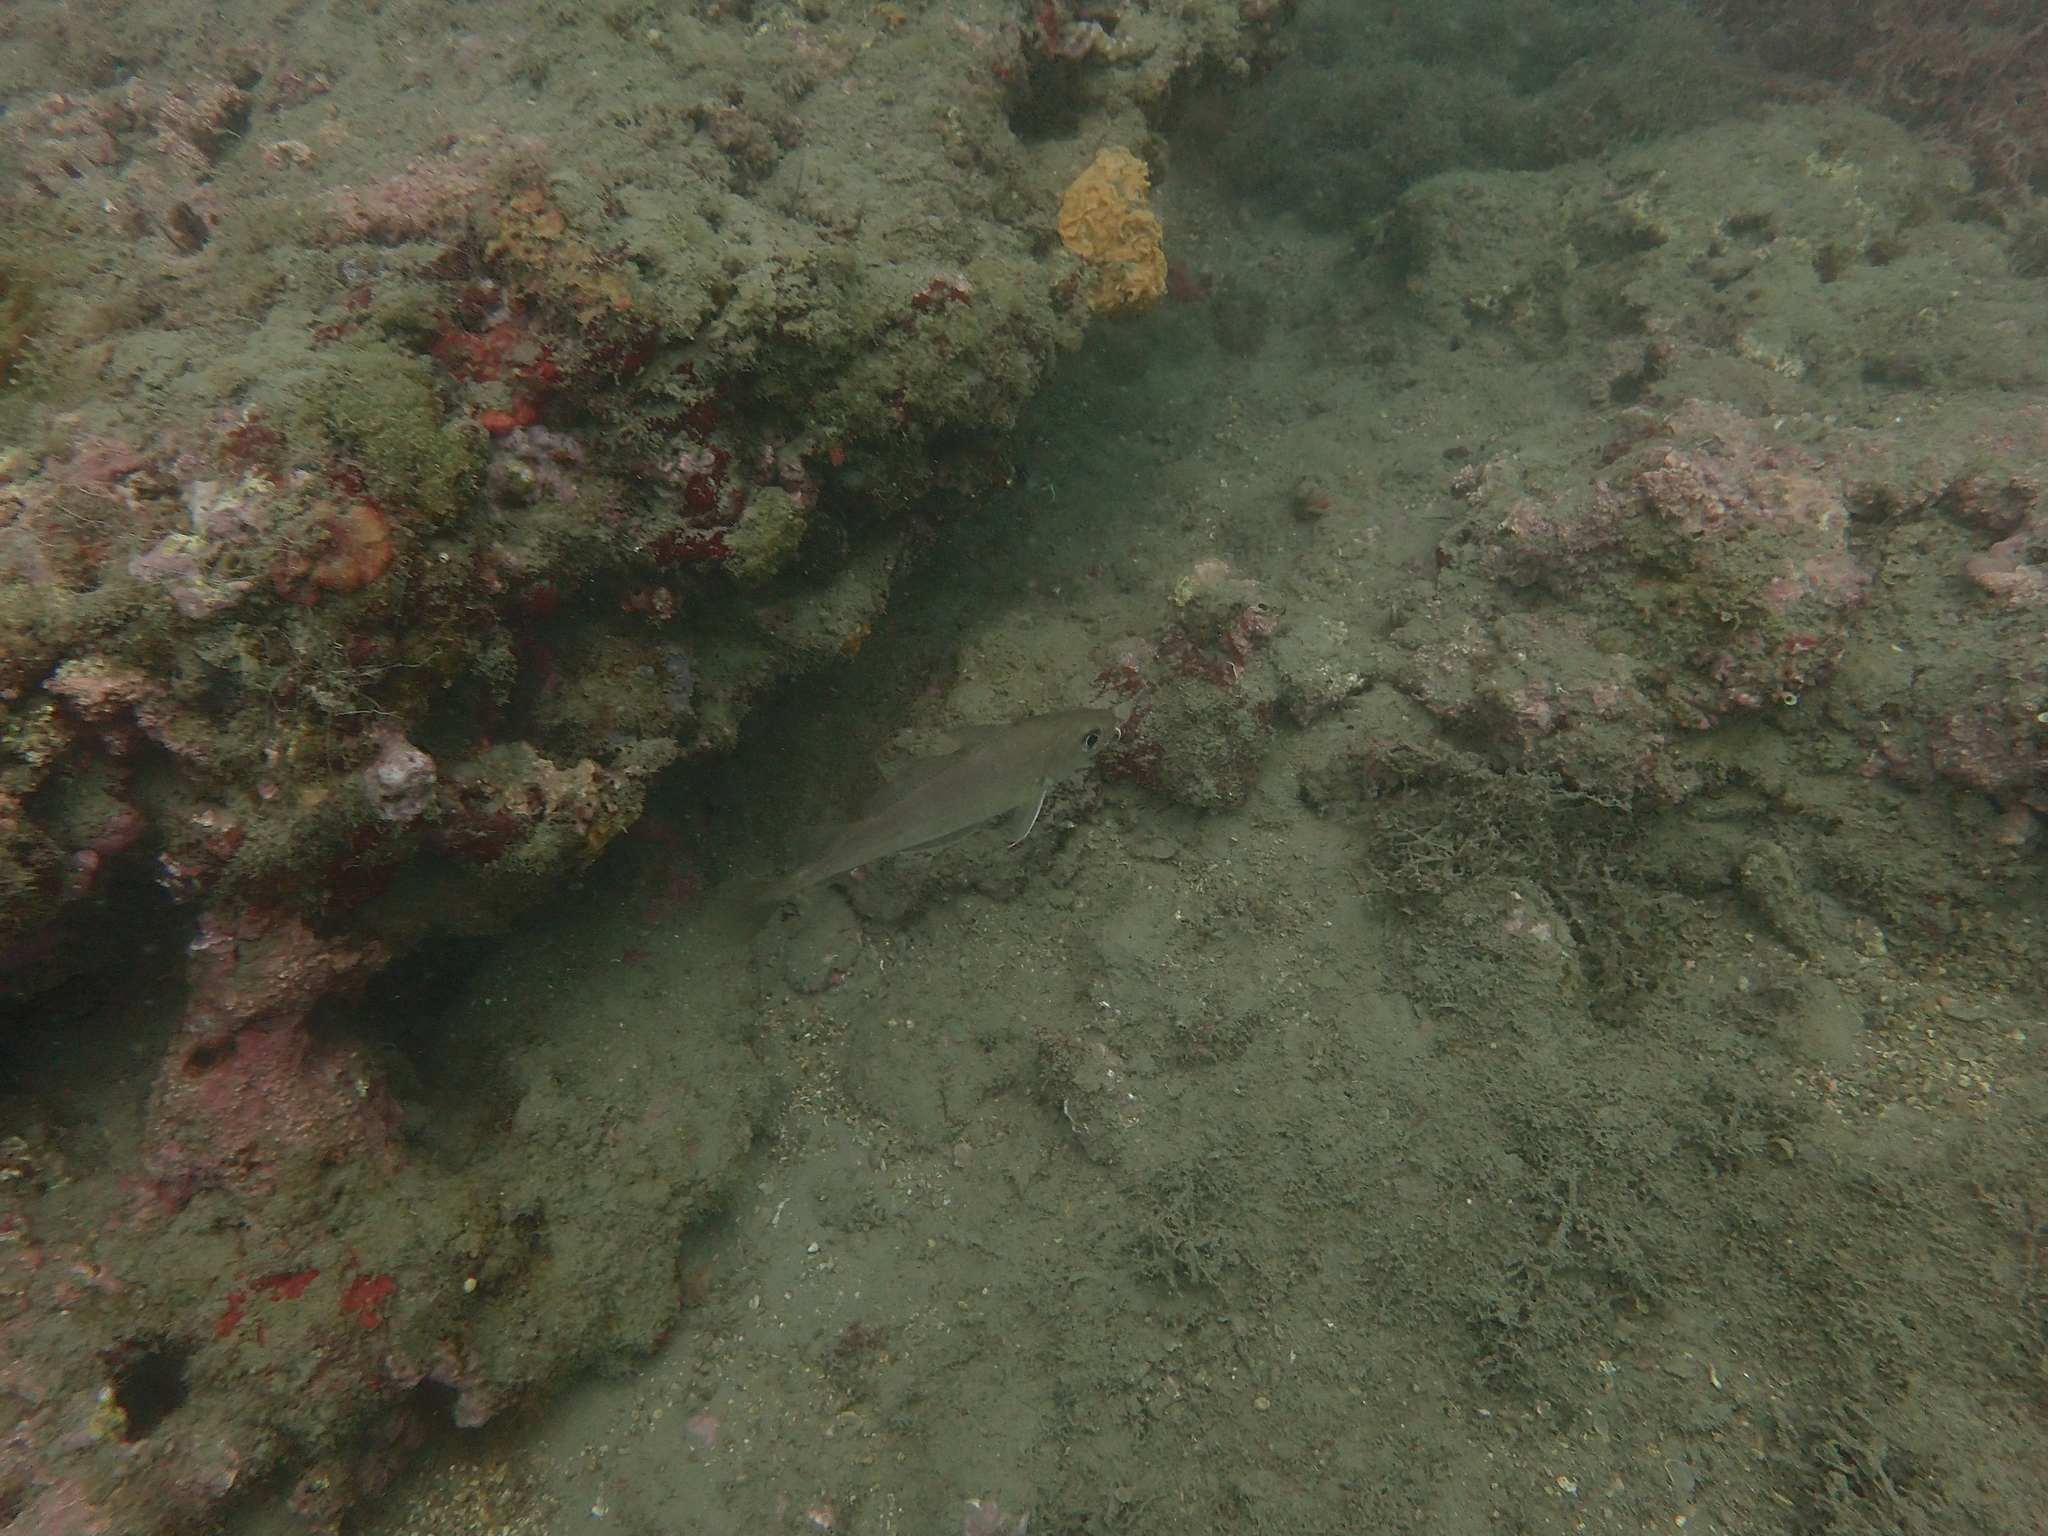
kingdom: Animalia
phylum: Chordata
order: Gadiformes
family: Gadidae
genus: Trisopterus
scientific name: Trisopterus capelanus
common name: Capelin
